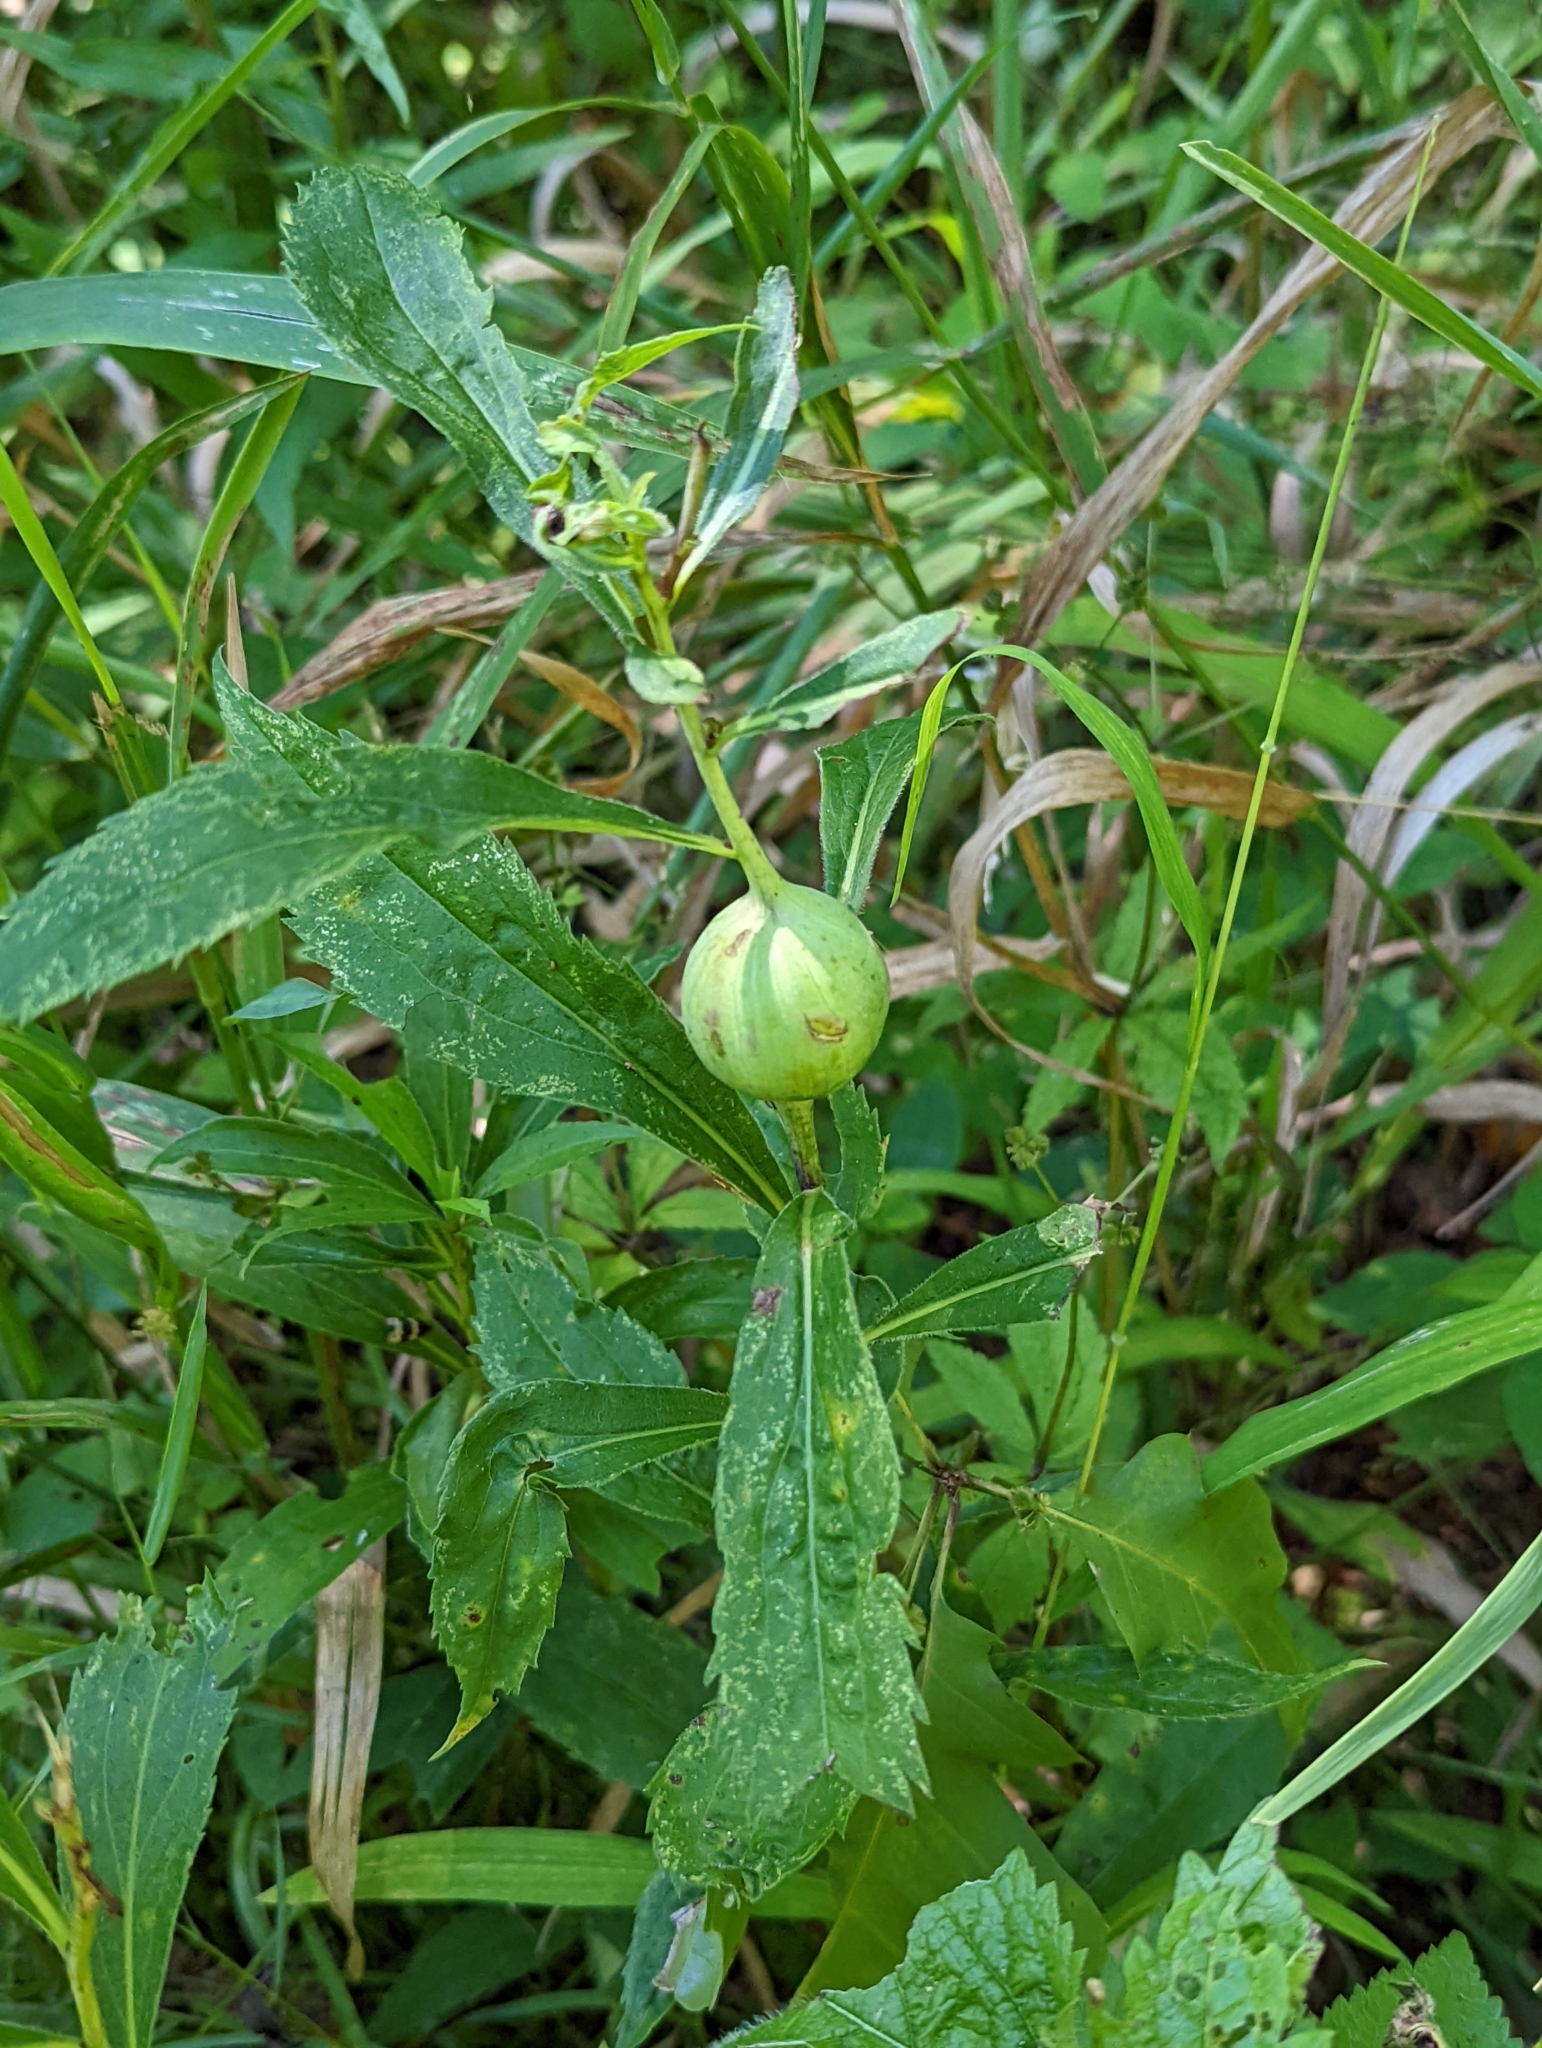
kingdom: Animalia
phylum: Arthropoda
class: Insecta
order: Diptera
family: Tephritidae
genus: Eurosta
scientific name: Eurosta solidaginis
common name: Goldenrod gall fly
